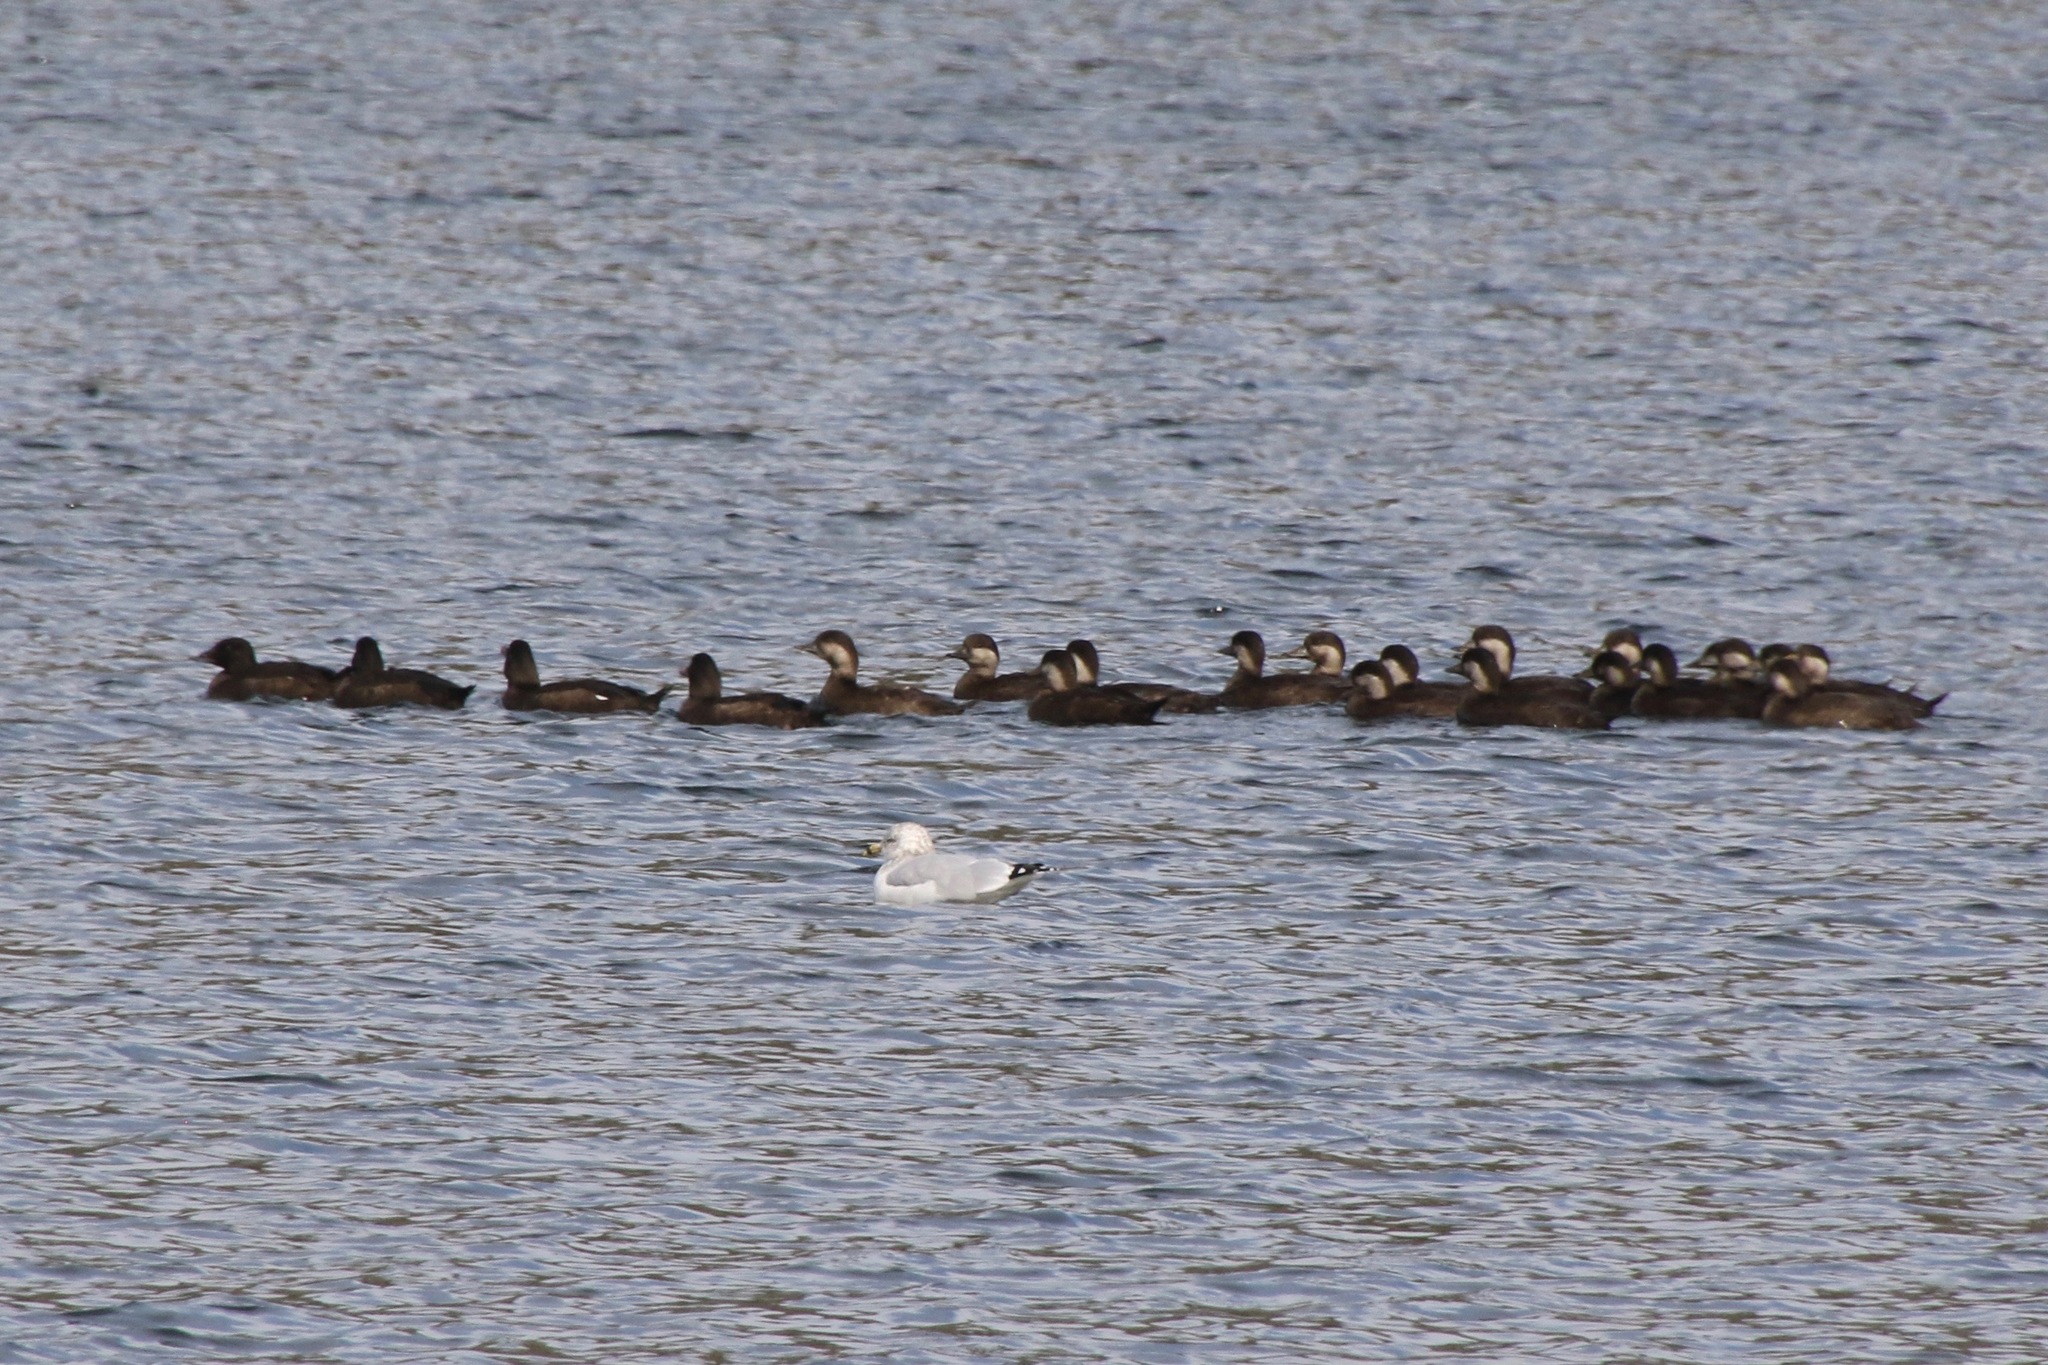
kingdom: Animalia
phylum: Chordata
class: Aves
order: Anseriformes
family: Anatidae
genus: Melanitta
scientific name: Melanitta americana
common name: Black scoter
